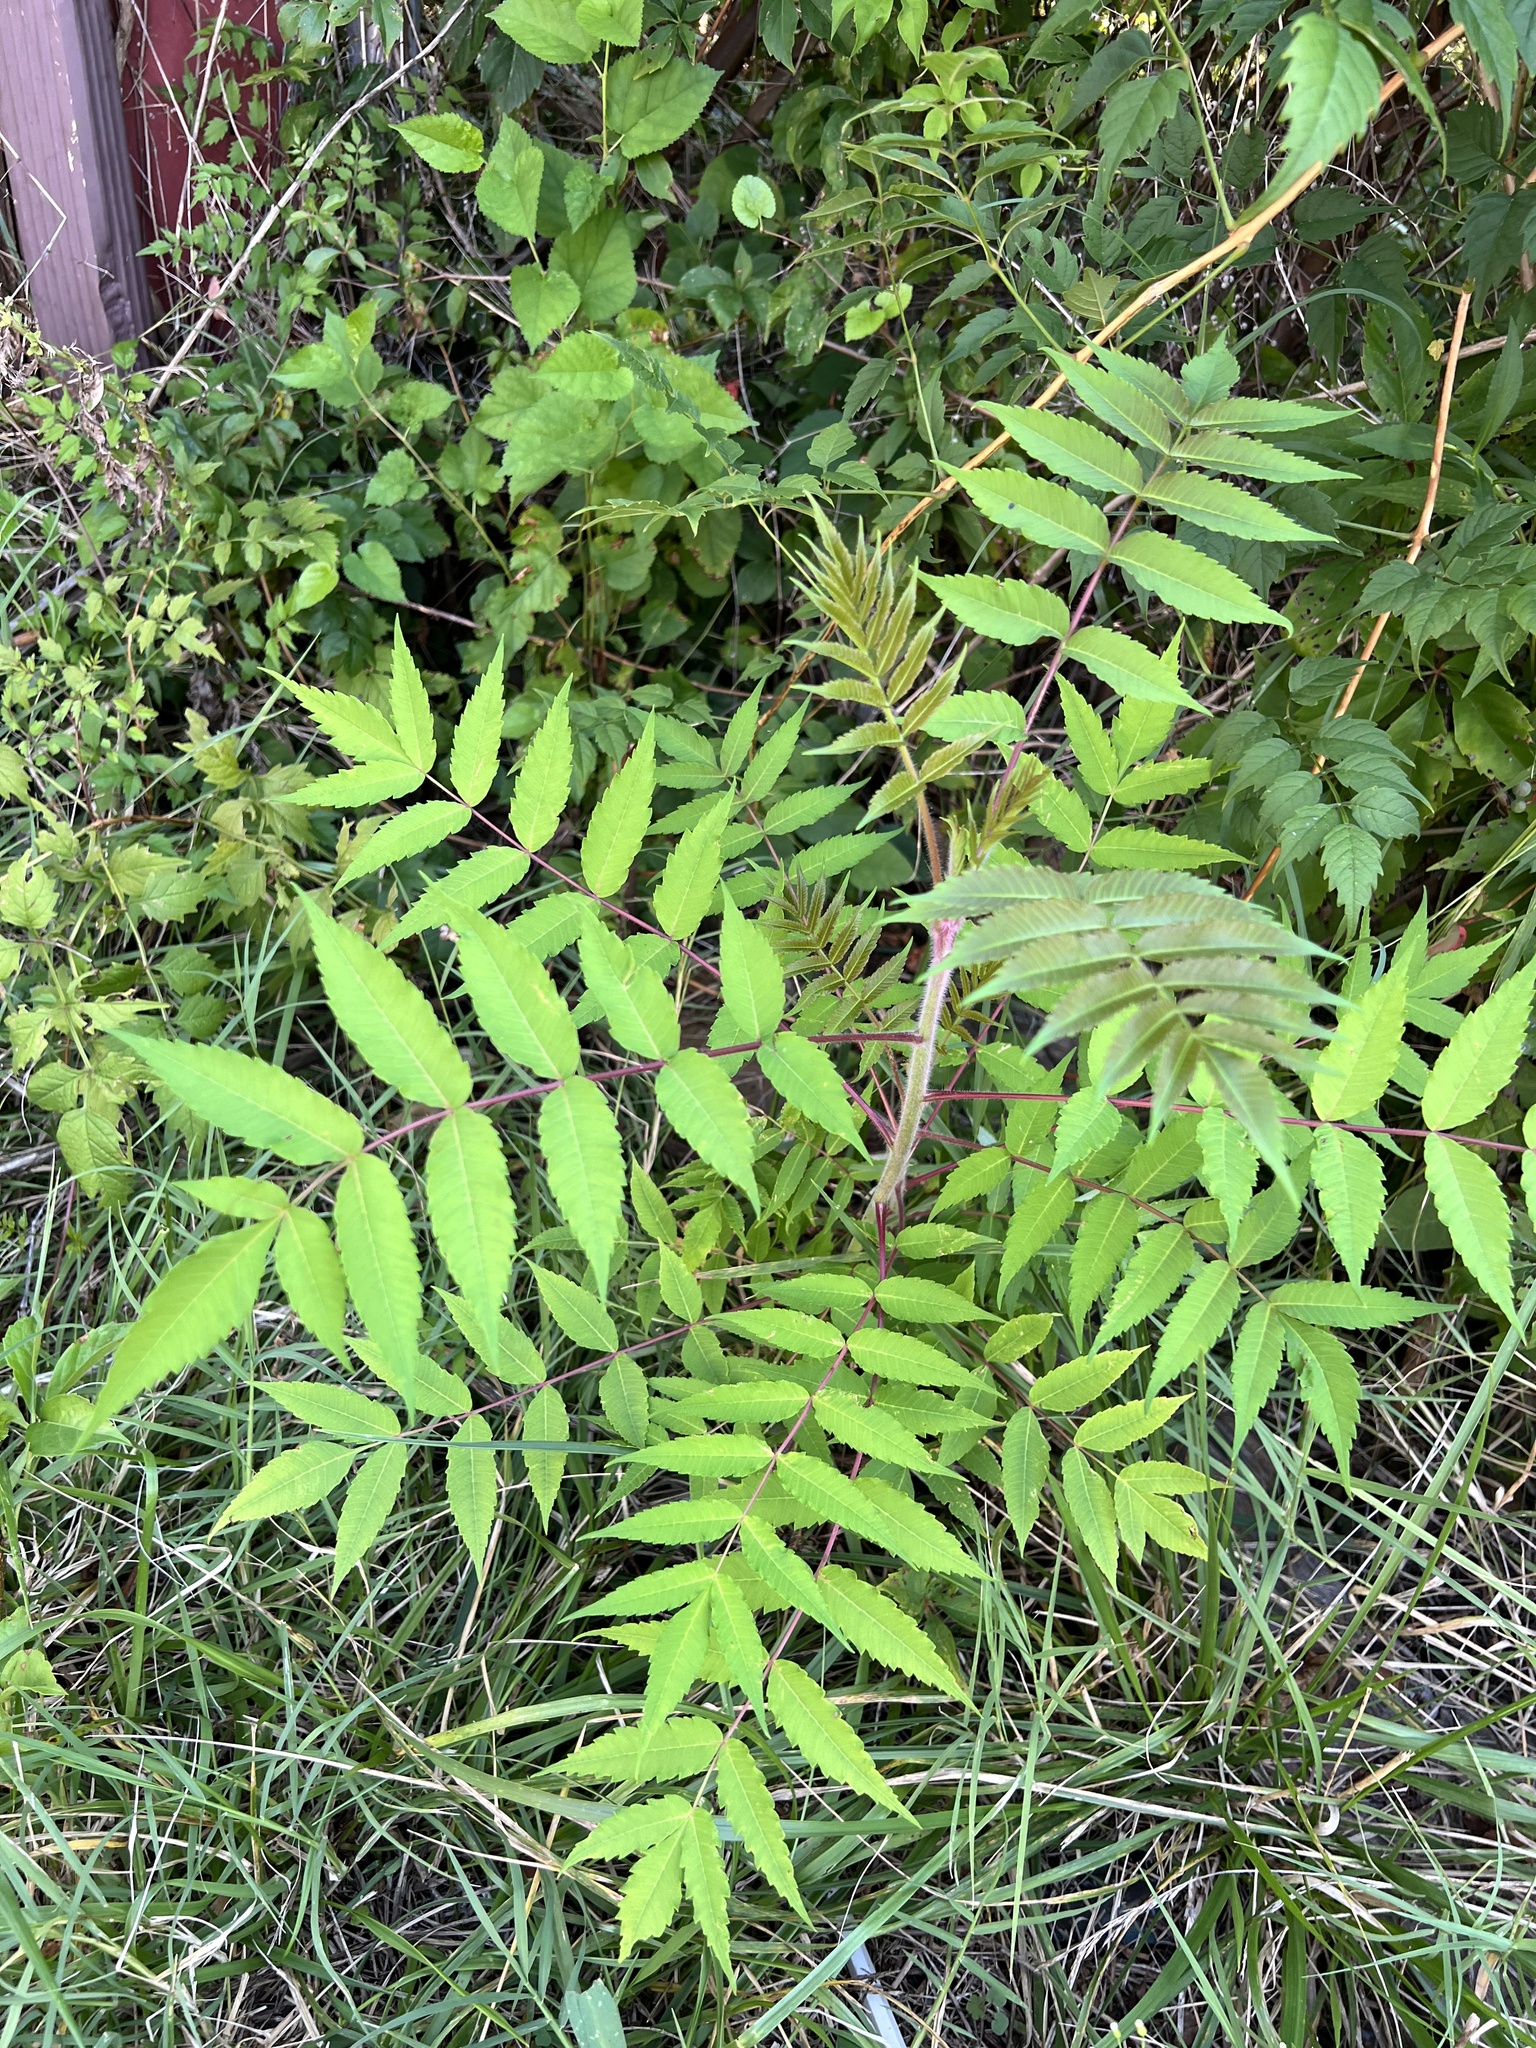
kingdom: Plantae
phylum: Tracheophyta
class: Magnoliopsida
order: Sapindales
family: Anacardiaceae
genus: Rhus
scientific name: Rhus typhina
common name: Staghorn sumac
